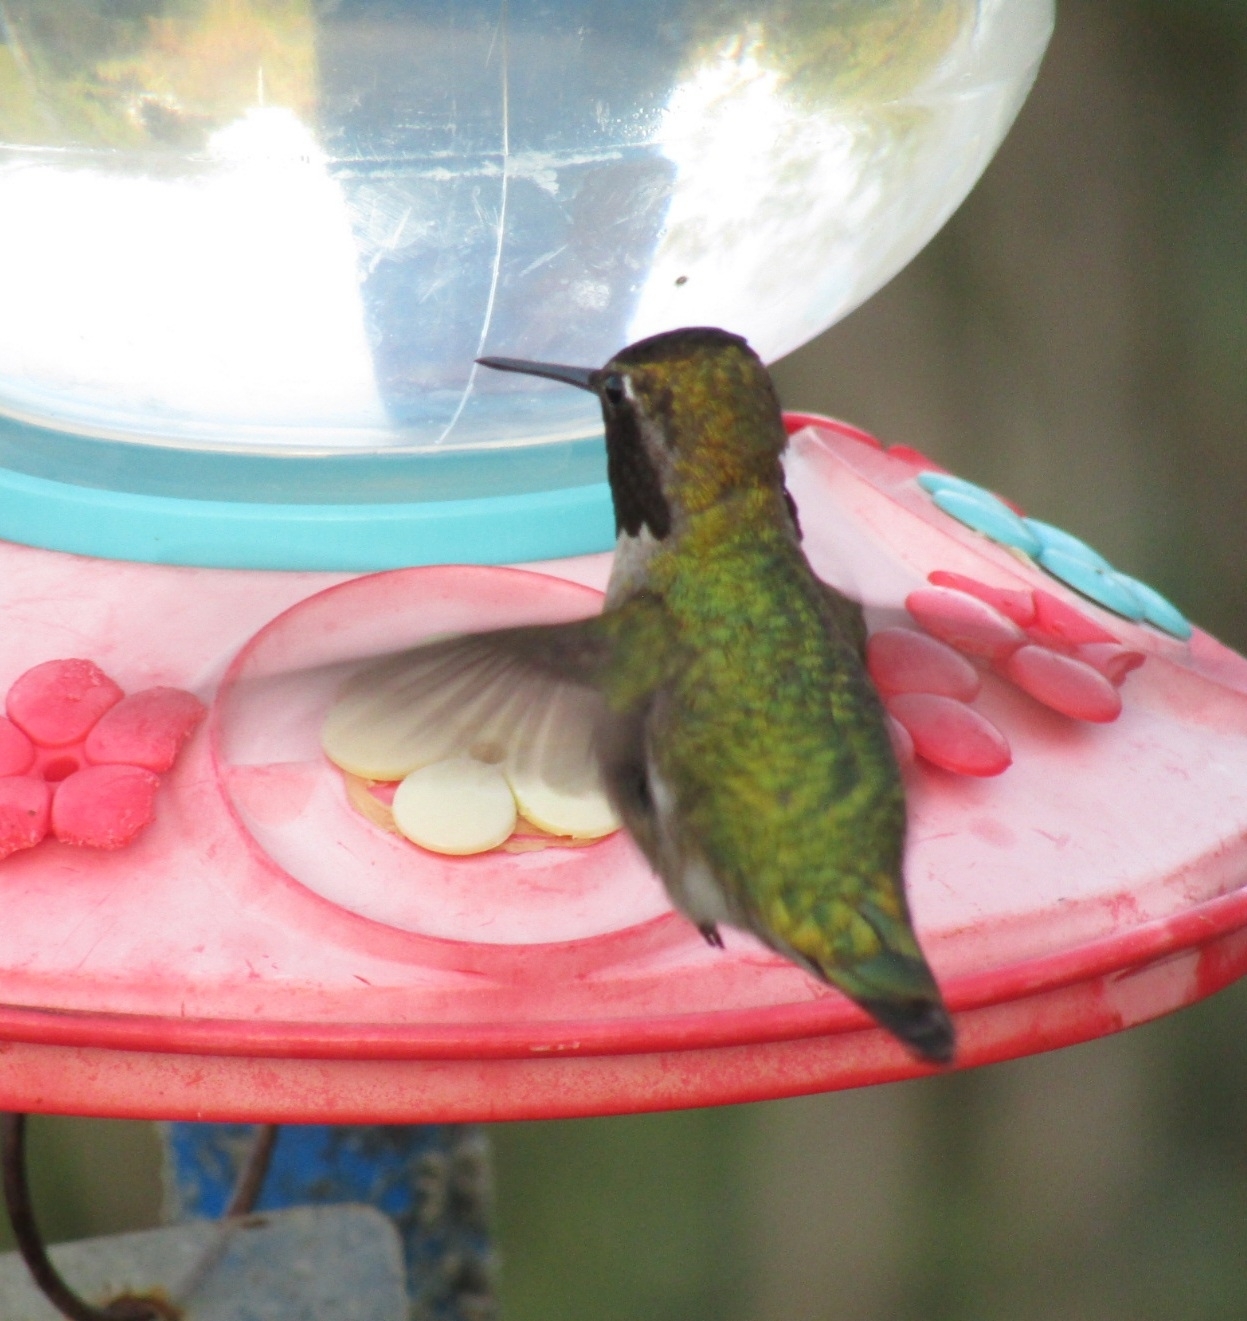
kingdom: Animalia
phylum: Chordata
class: Aves
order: Apodiformes
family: Trochilidae
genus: Calypte
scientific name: Calypte anna
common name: Anna's hummingbird
